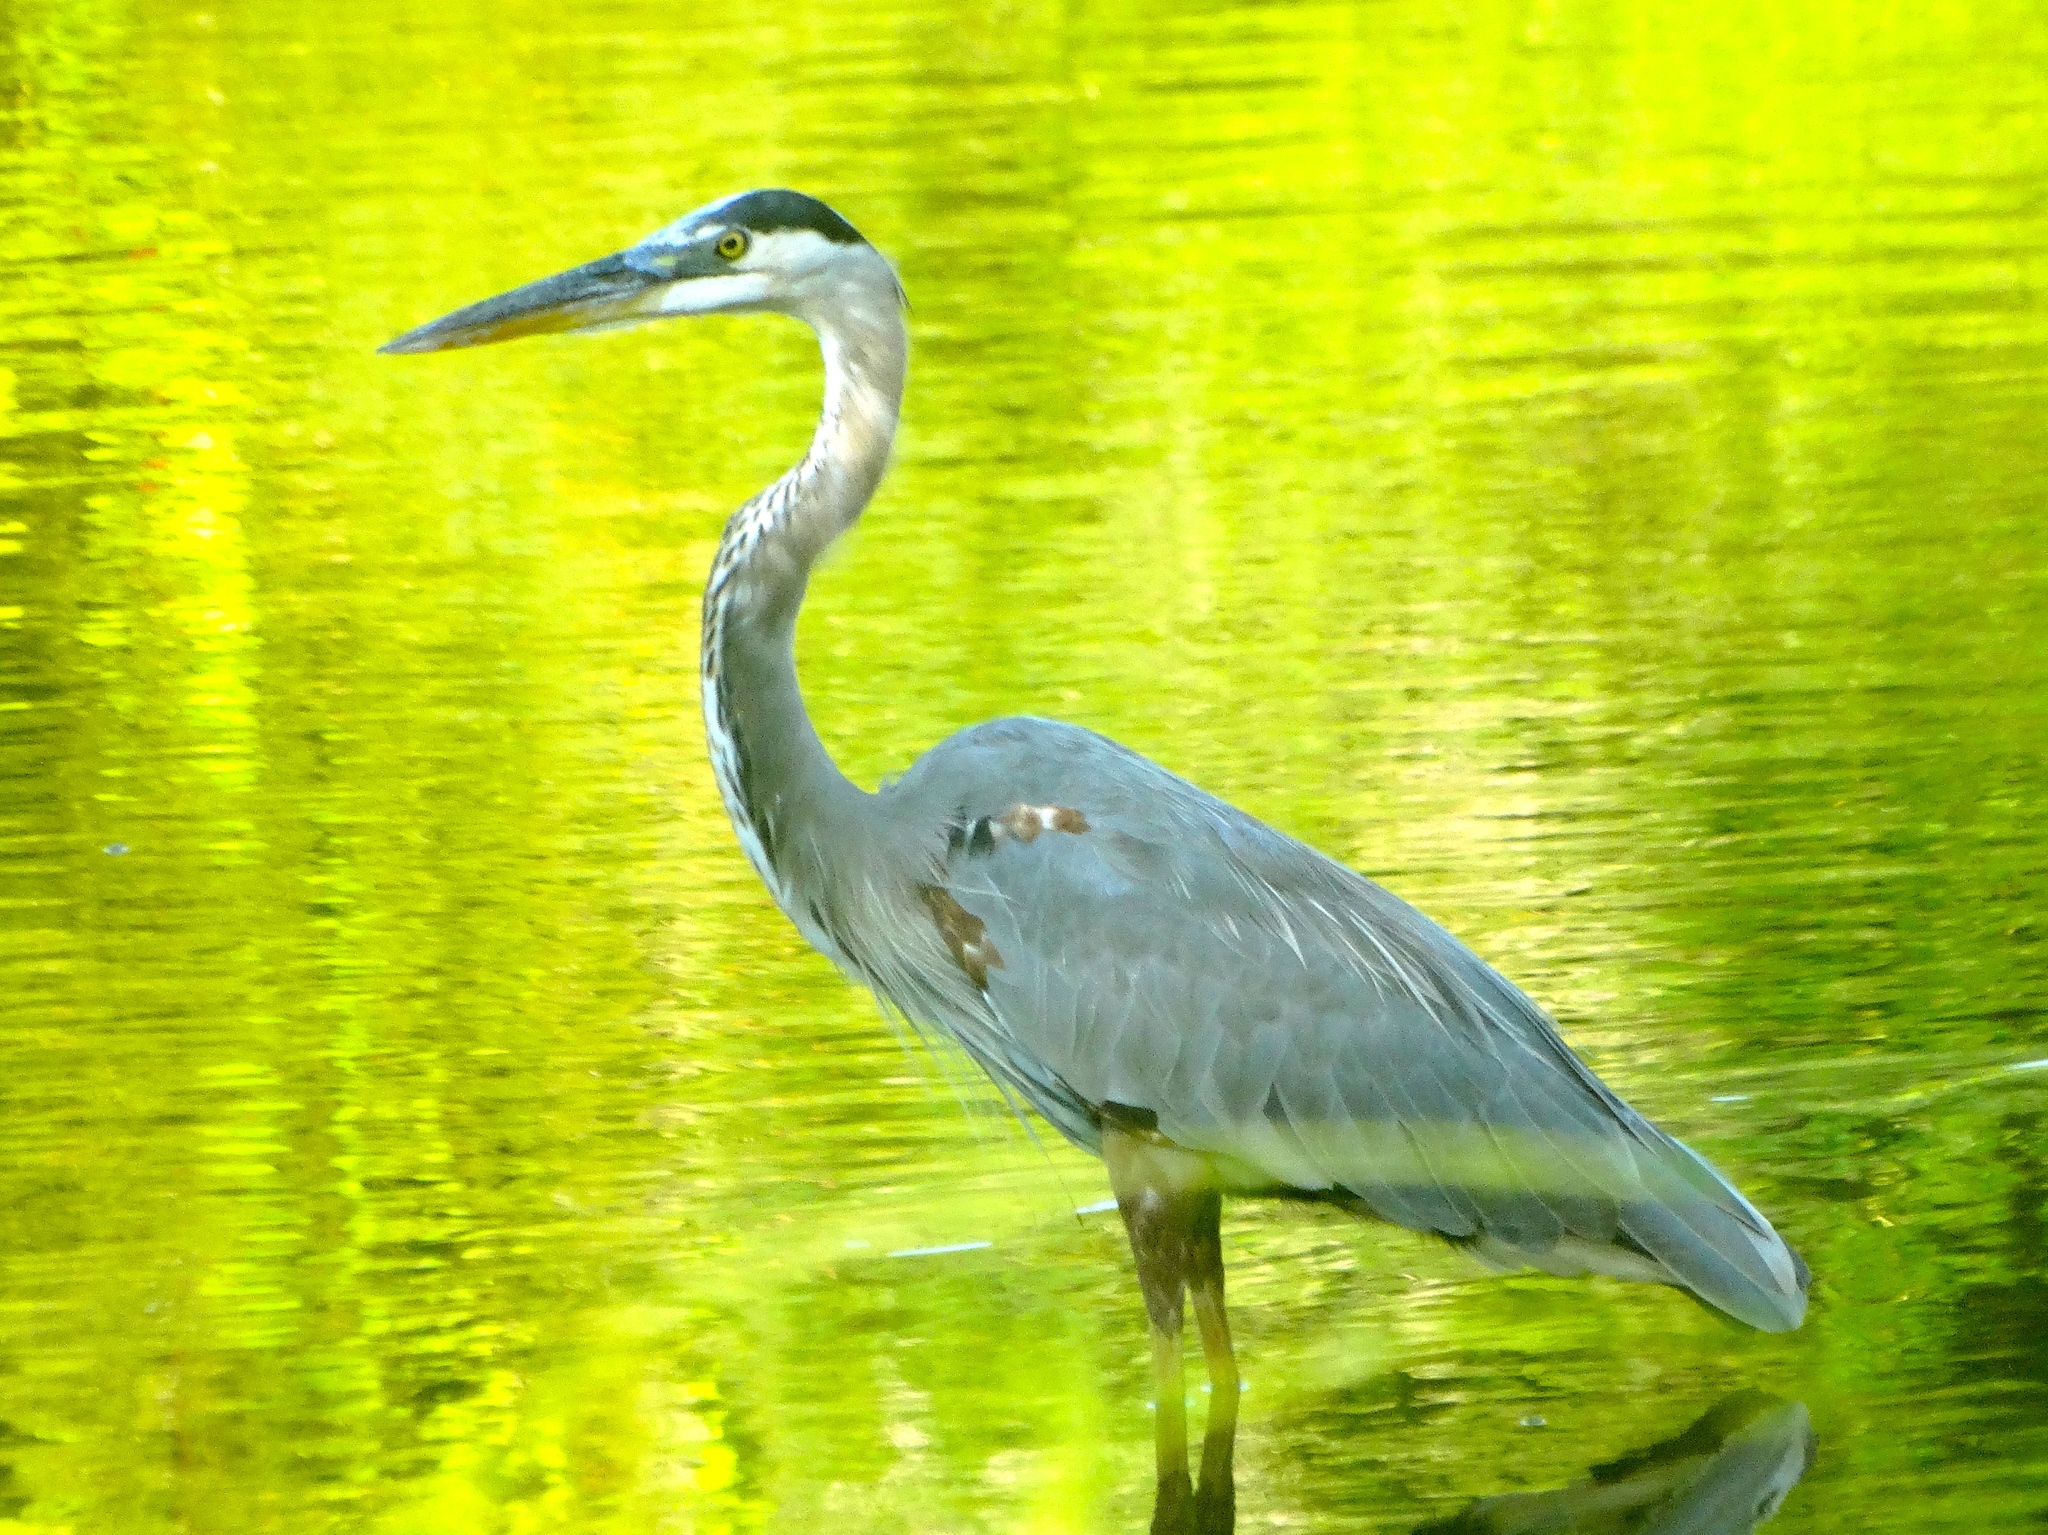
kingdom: Animalia
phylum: Chordata
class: Aves
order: Pelecaniformes
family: Ardeidae
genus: Ardea
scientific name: Ardea herodias
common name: Great blue heron
